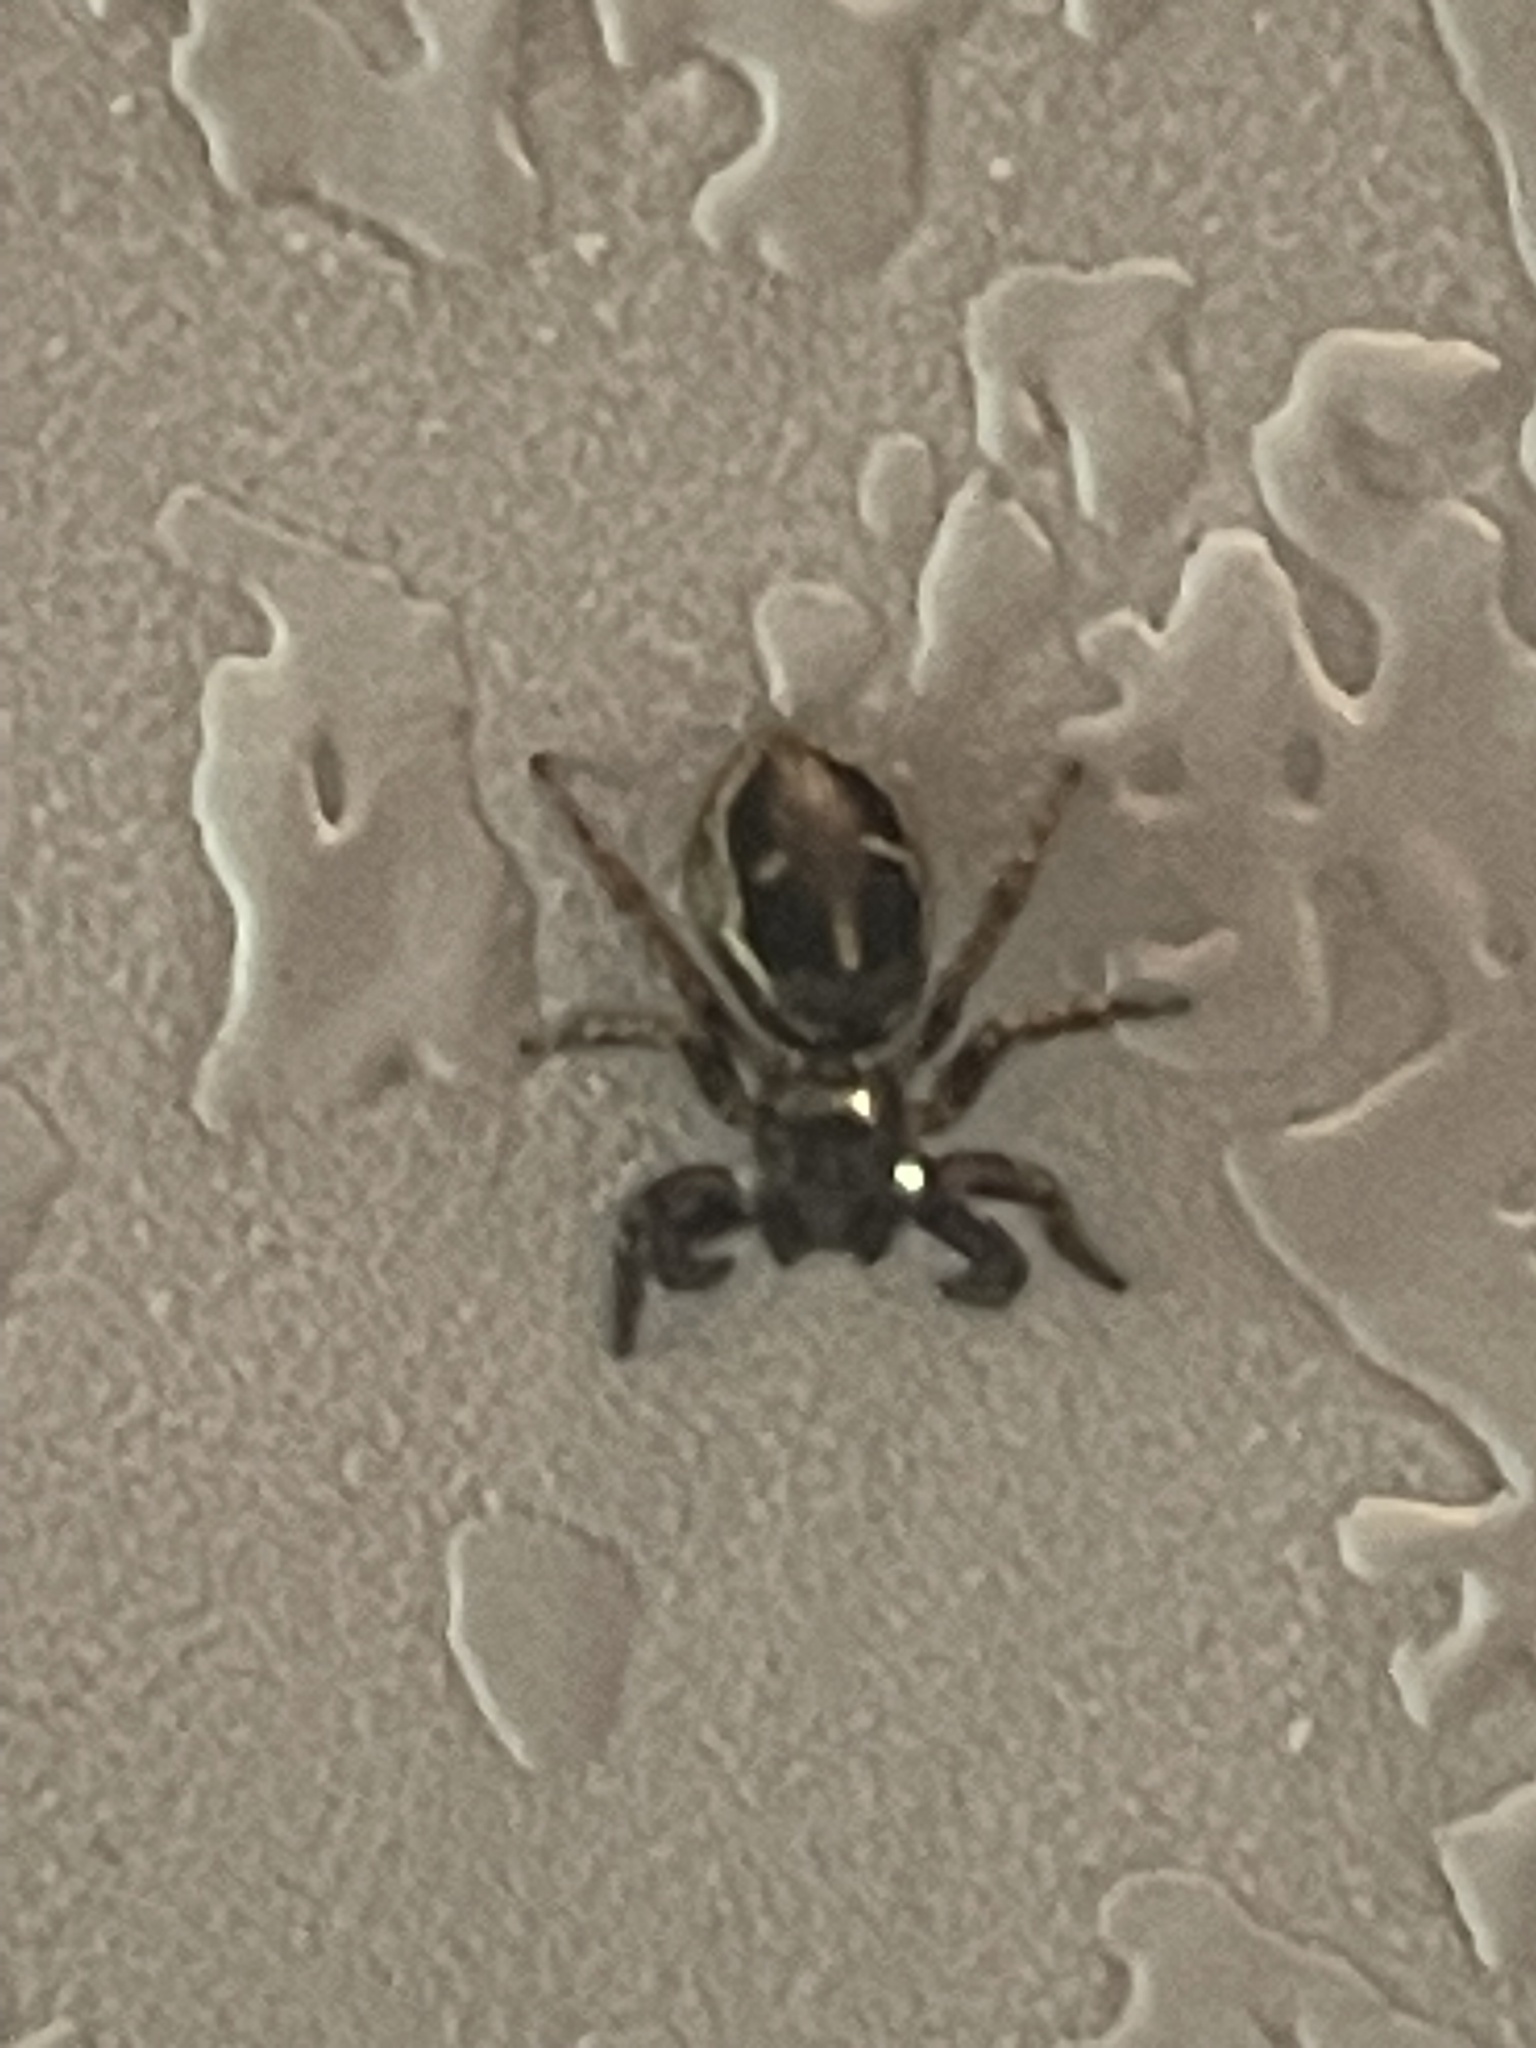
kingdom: Animalia
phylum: Arthropoda
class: Arachnida
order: Araneae
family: Salticidae
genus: Anasaitis
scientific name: Anasaitis canosa
